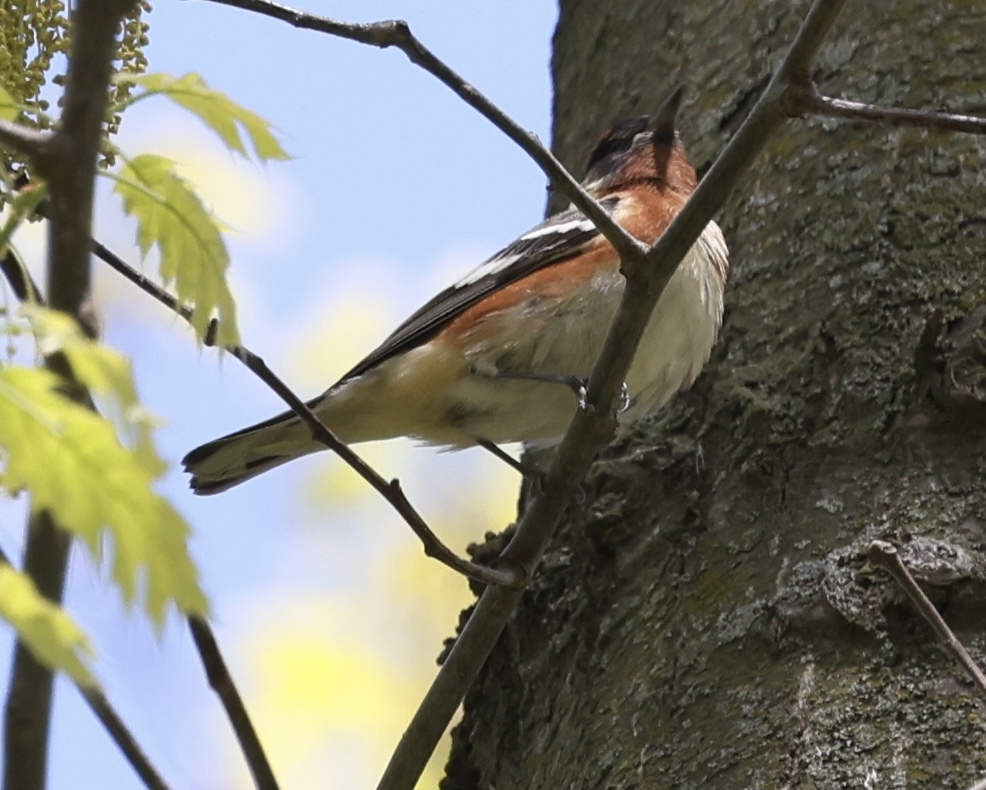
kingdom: Animalia
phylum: Chordata
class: Aves
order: Passeriformes
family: Parulidae
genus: Setophaga
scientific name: Setophaga castanea
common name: Bay-breasted warbler
